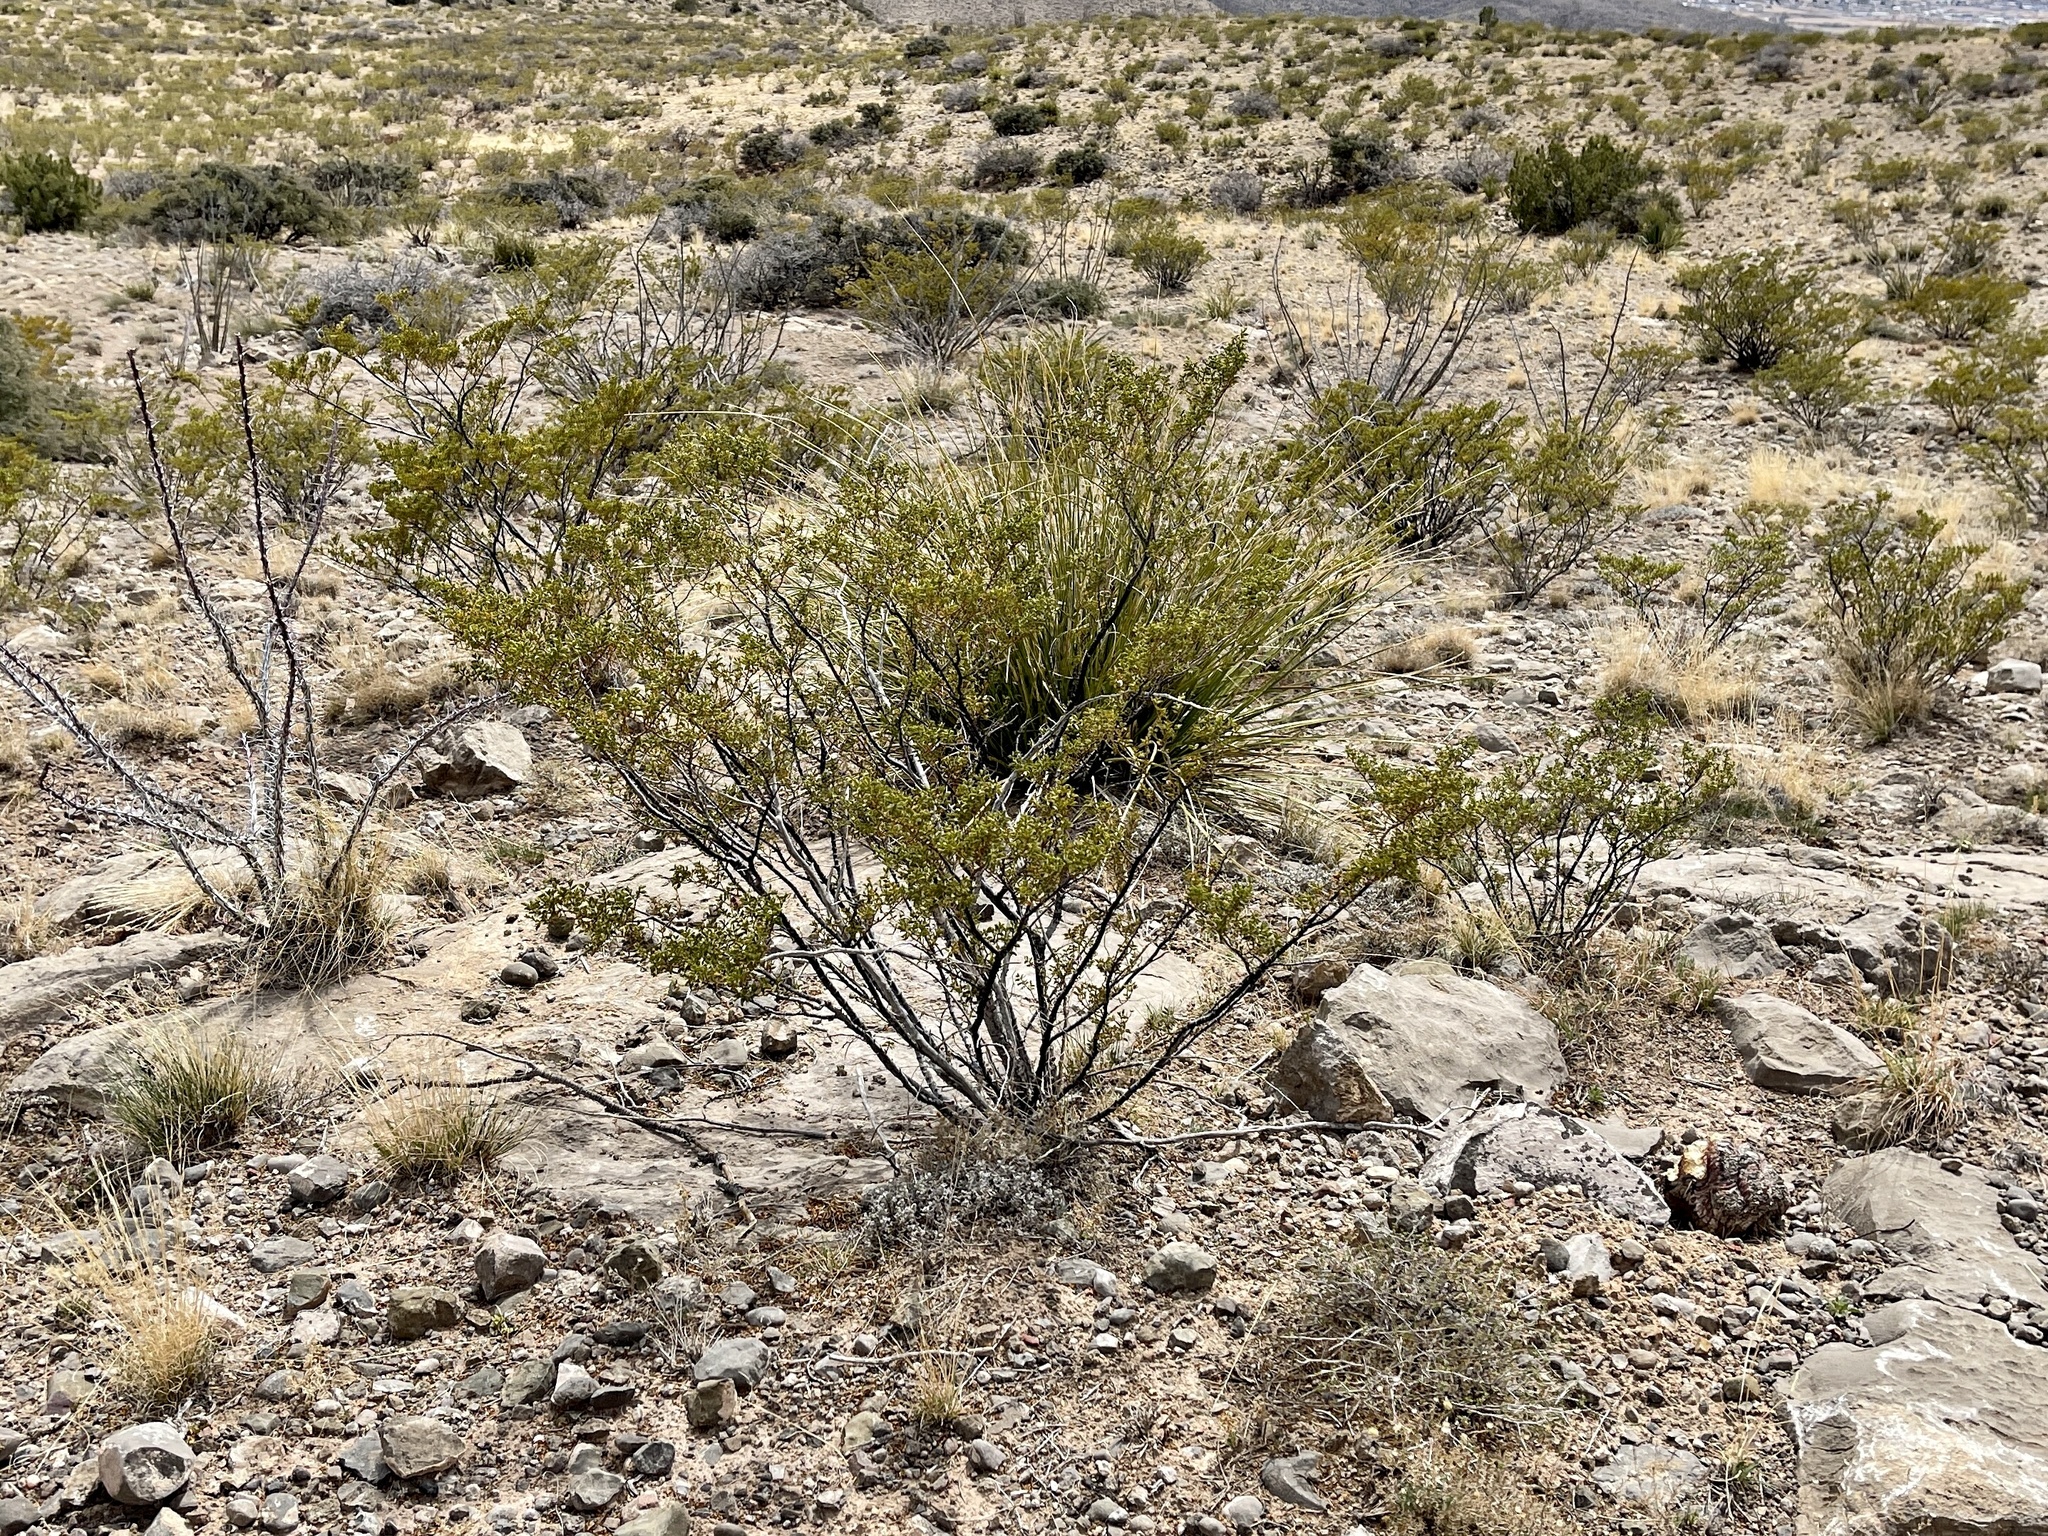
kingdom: Plantae
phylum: Tracheophyta
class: Magnoliopsida
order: Zygophyllales
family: Zygophyllaceae
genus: Larrea
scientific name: Larrea tridentata
